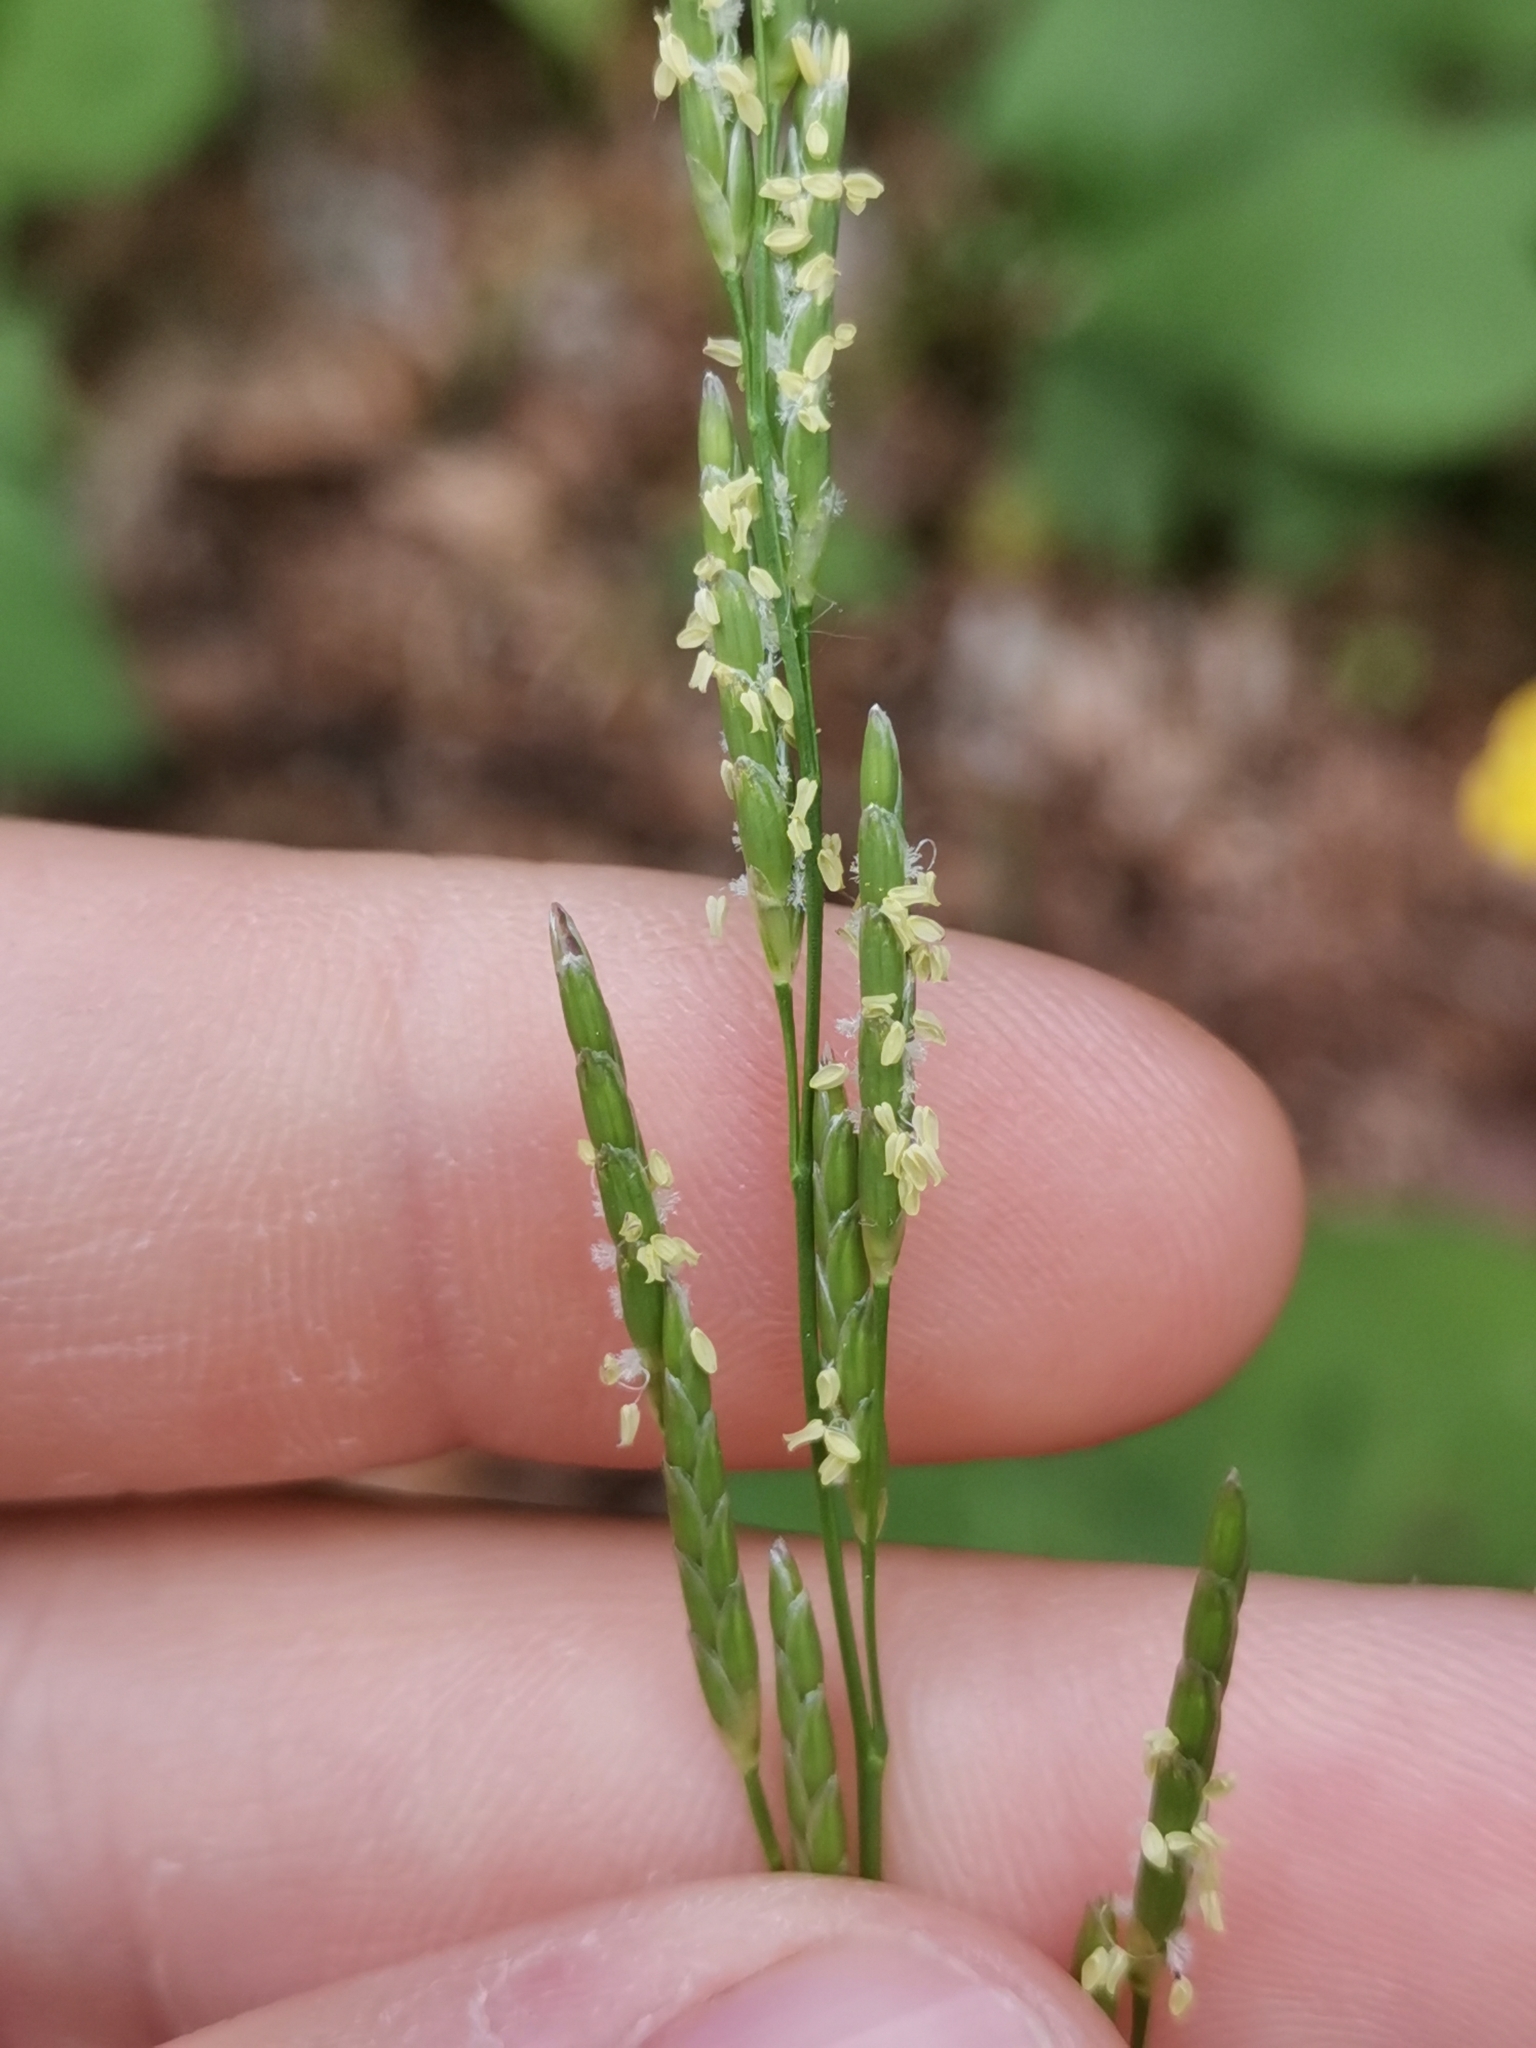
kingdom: Plantae
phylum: Tracheophyta
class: Liliopsida
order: Poales
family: Poaceae
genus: Glyceria
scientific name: Glyceria notata
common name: Plicate sweet-grass
